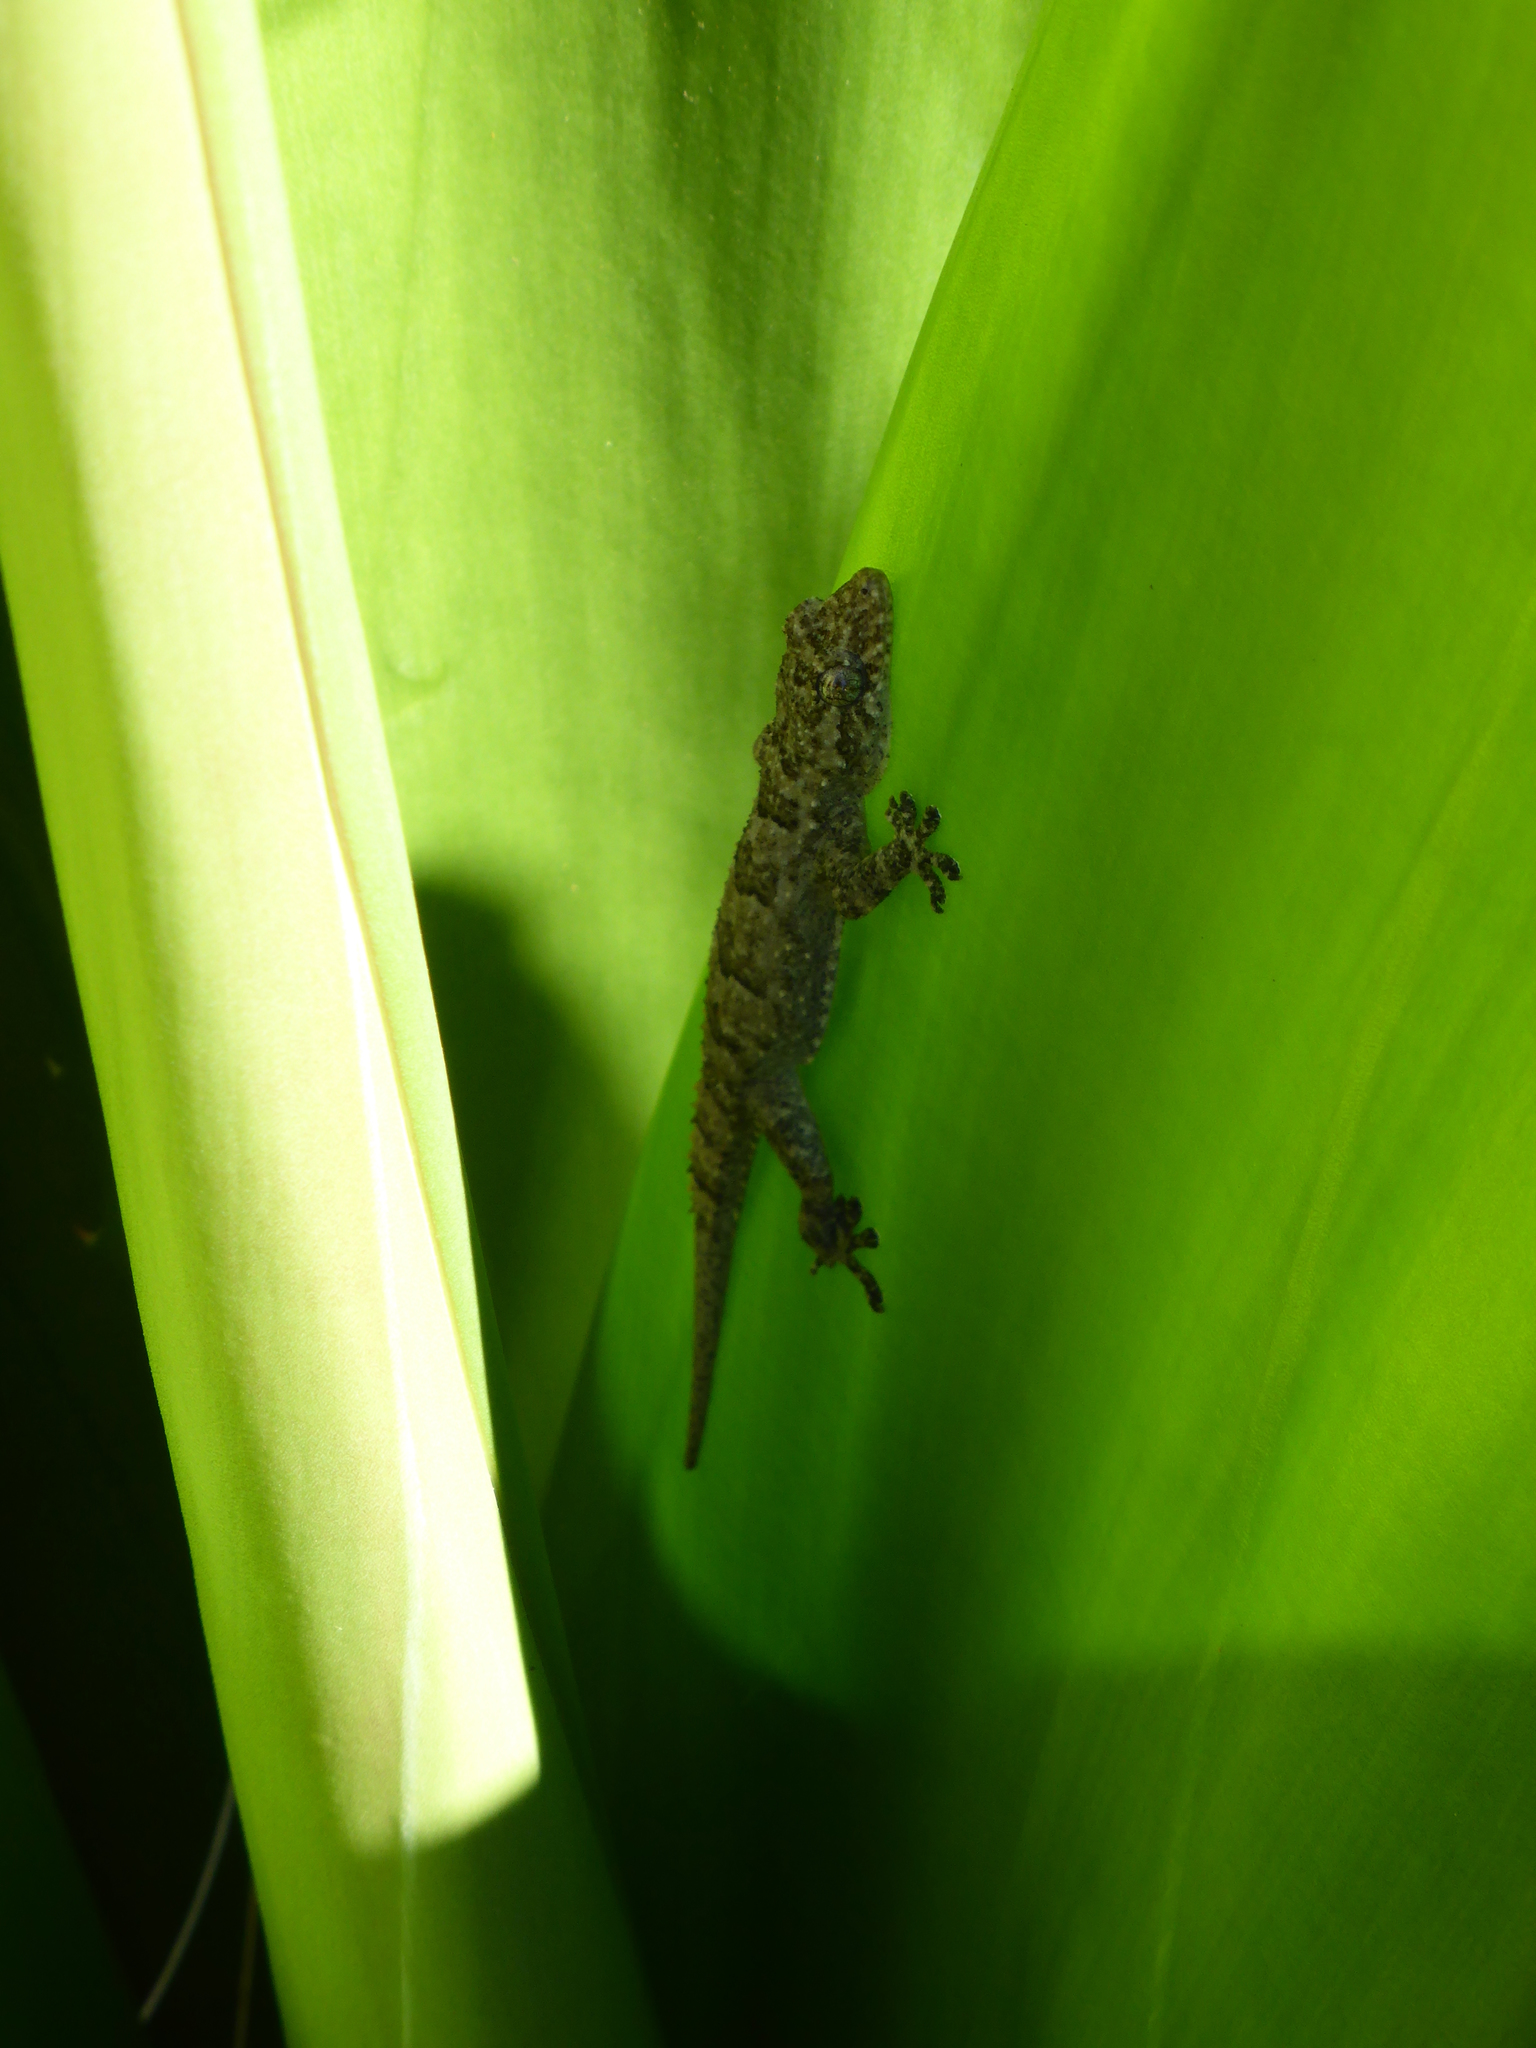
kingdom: Animalia
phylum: Chordata
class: Squamata
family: Gekkonidae
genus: Hemidactylus
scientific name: Hemidactylus mercatorius
